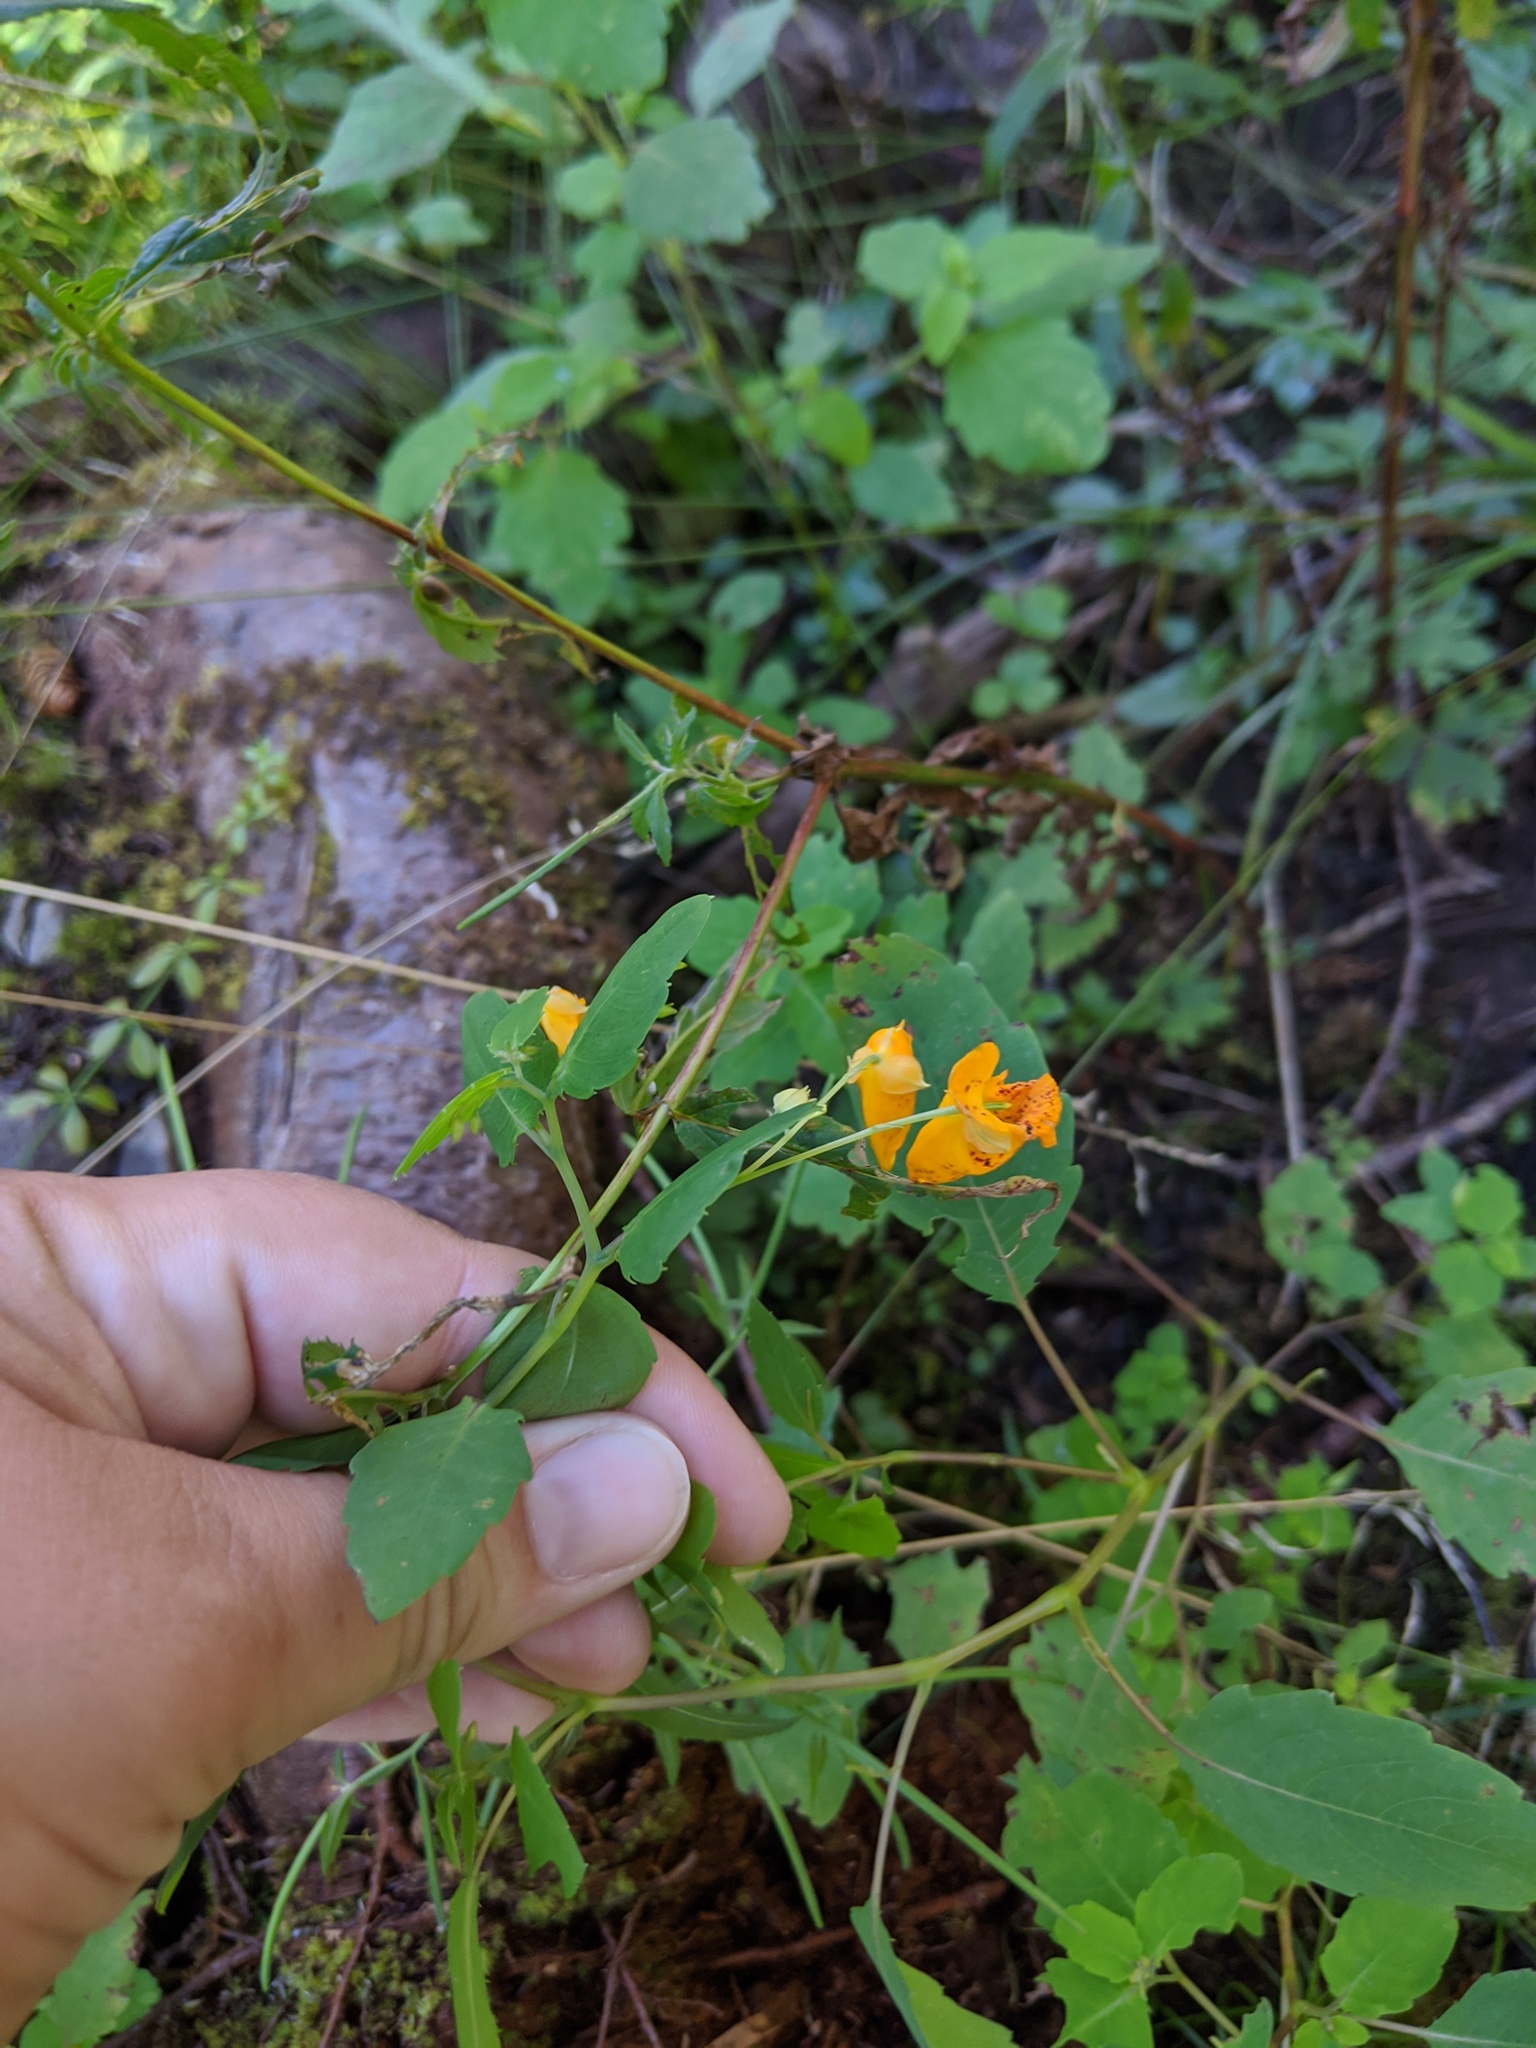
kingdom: Plantae
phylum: Tracheophyta
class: Magnoliopsida
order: Ericales
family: Balsaminaceae
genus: Impatiens
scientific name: Impatiens capensis
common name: Orange balsam
